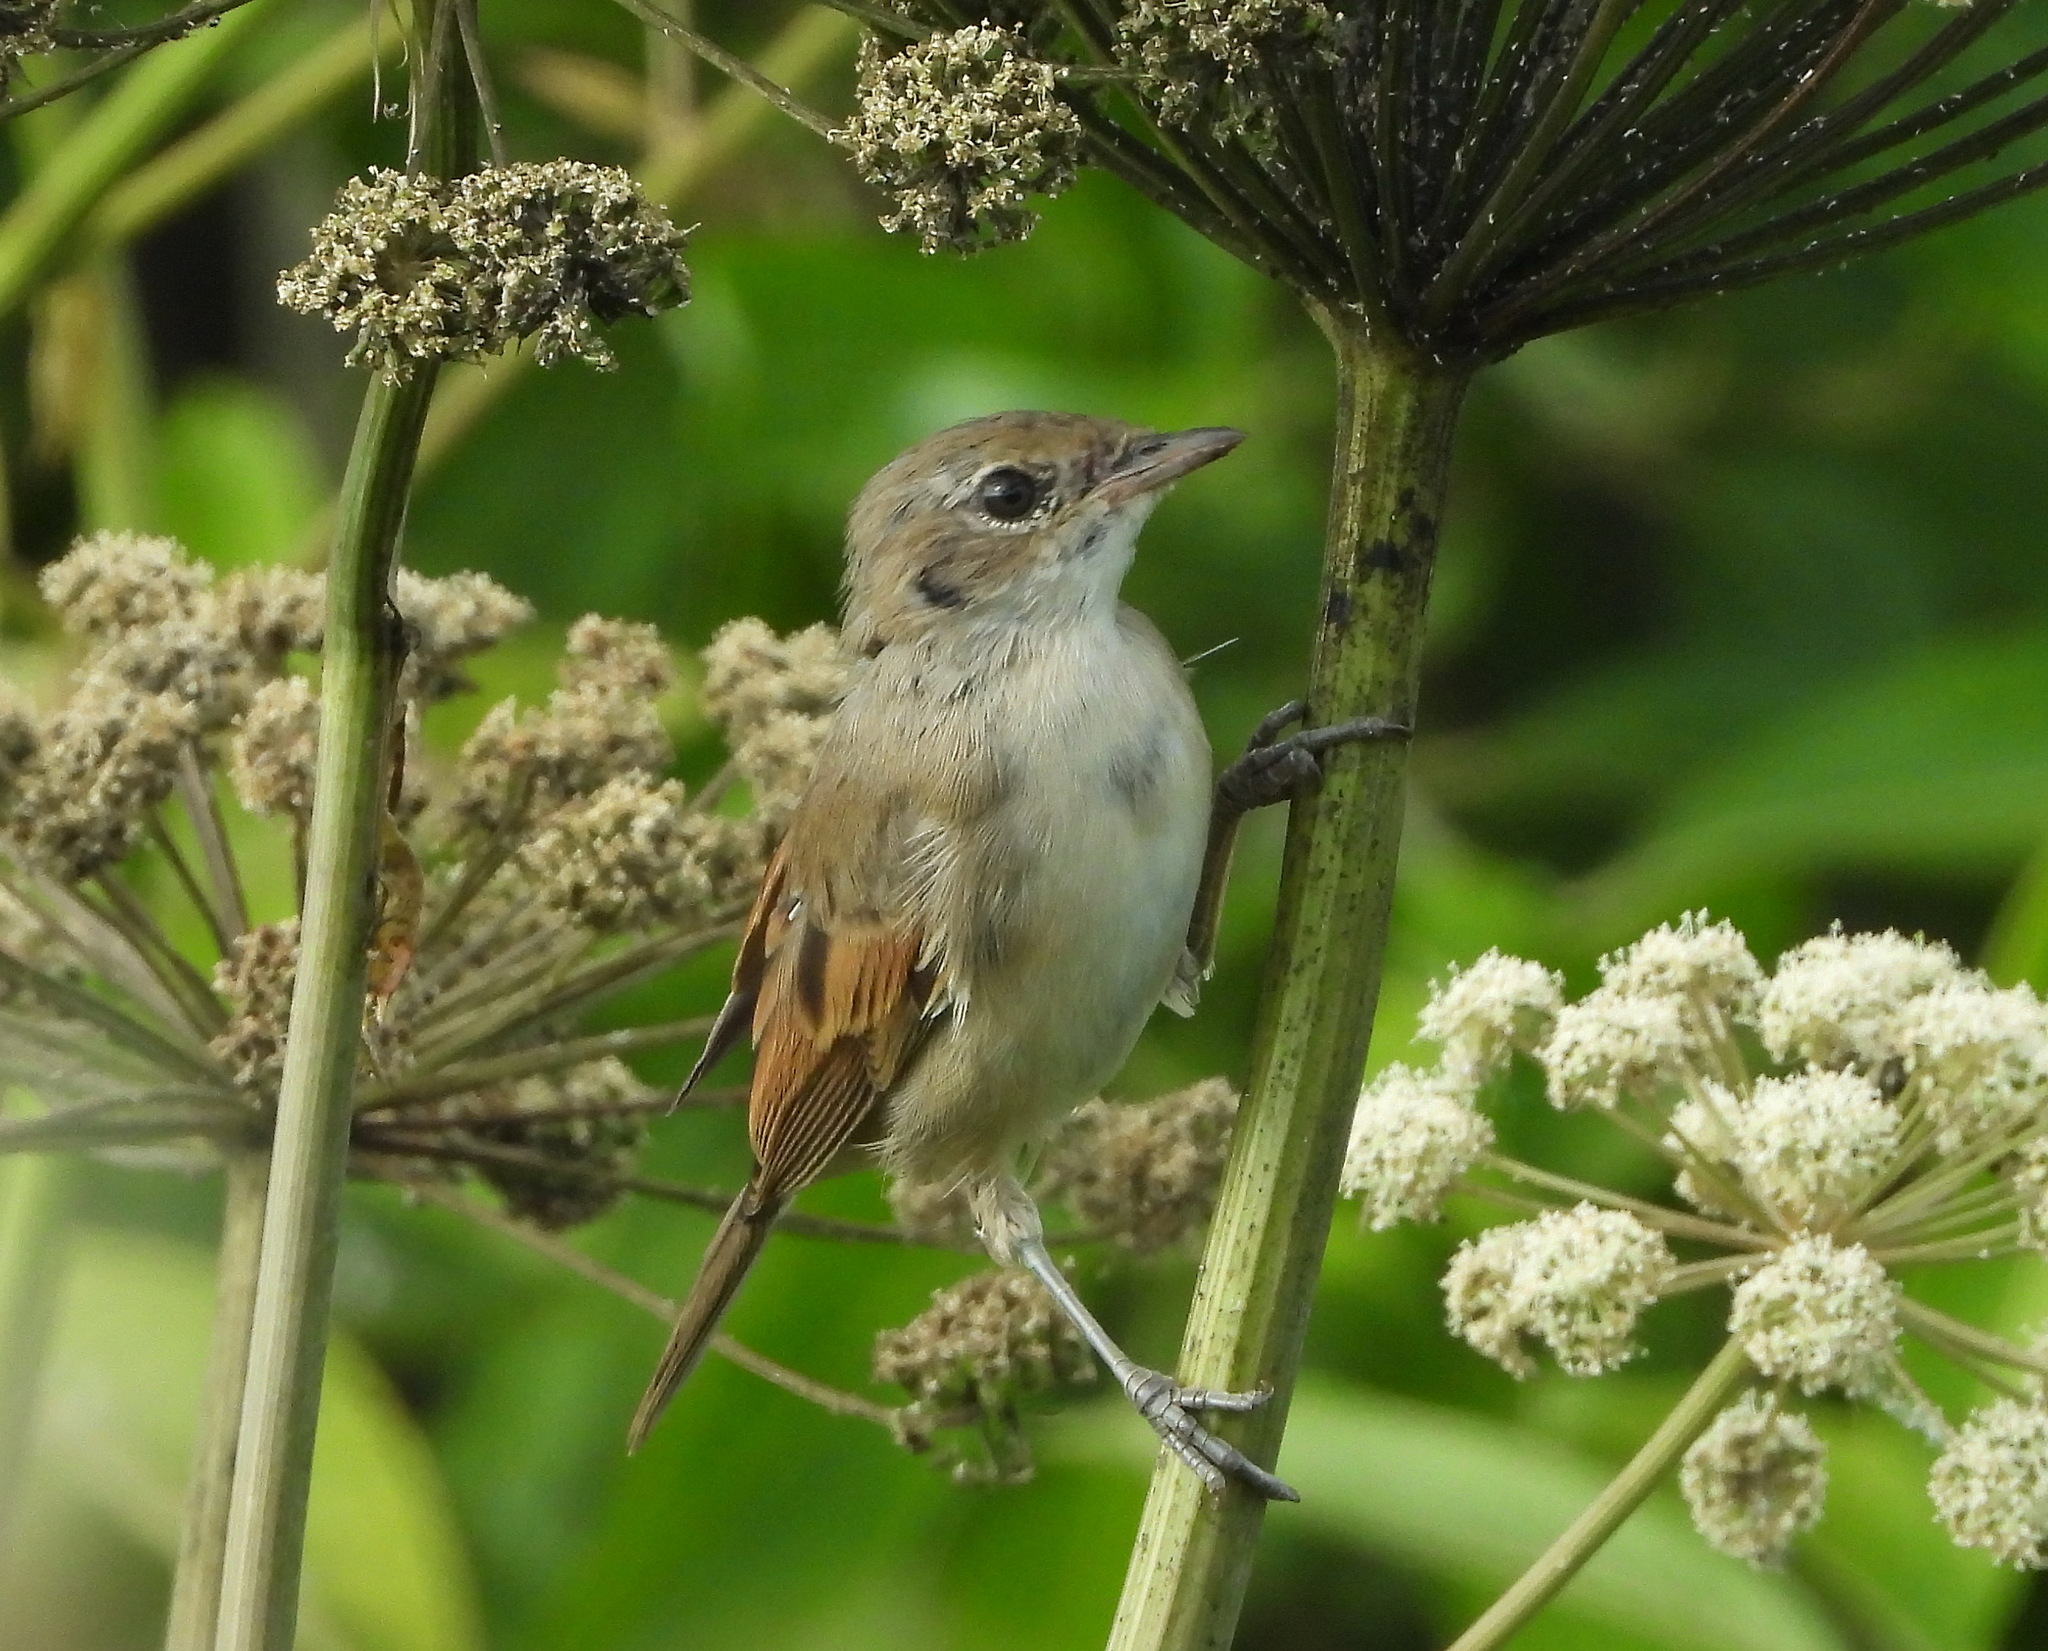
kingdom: Animalia
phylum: Chordata
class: Aves
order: Passeriformes
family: Sylviidae
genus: Sylvia
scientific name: Sylvia communis
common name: Common whitethroat
